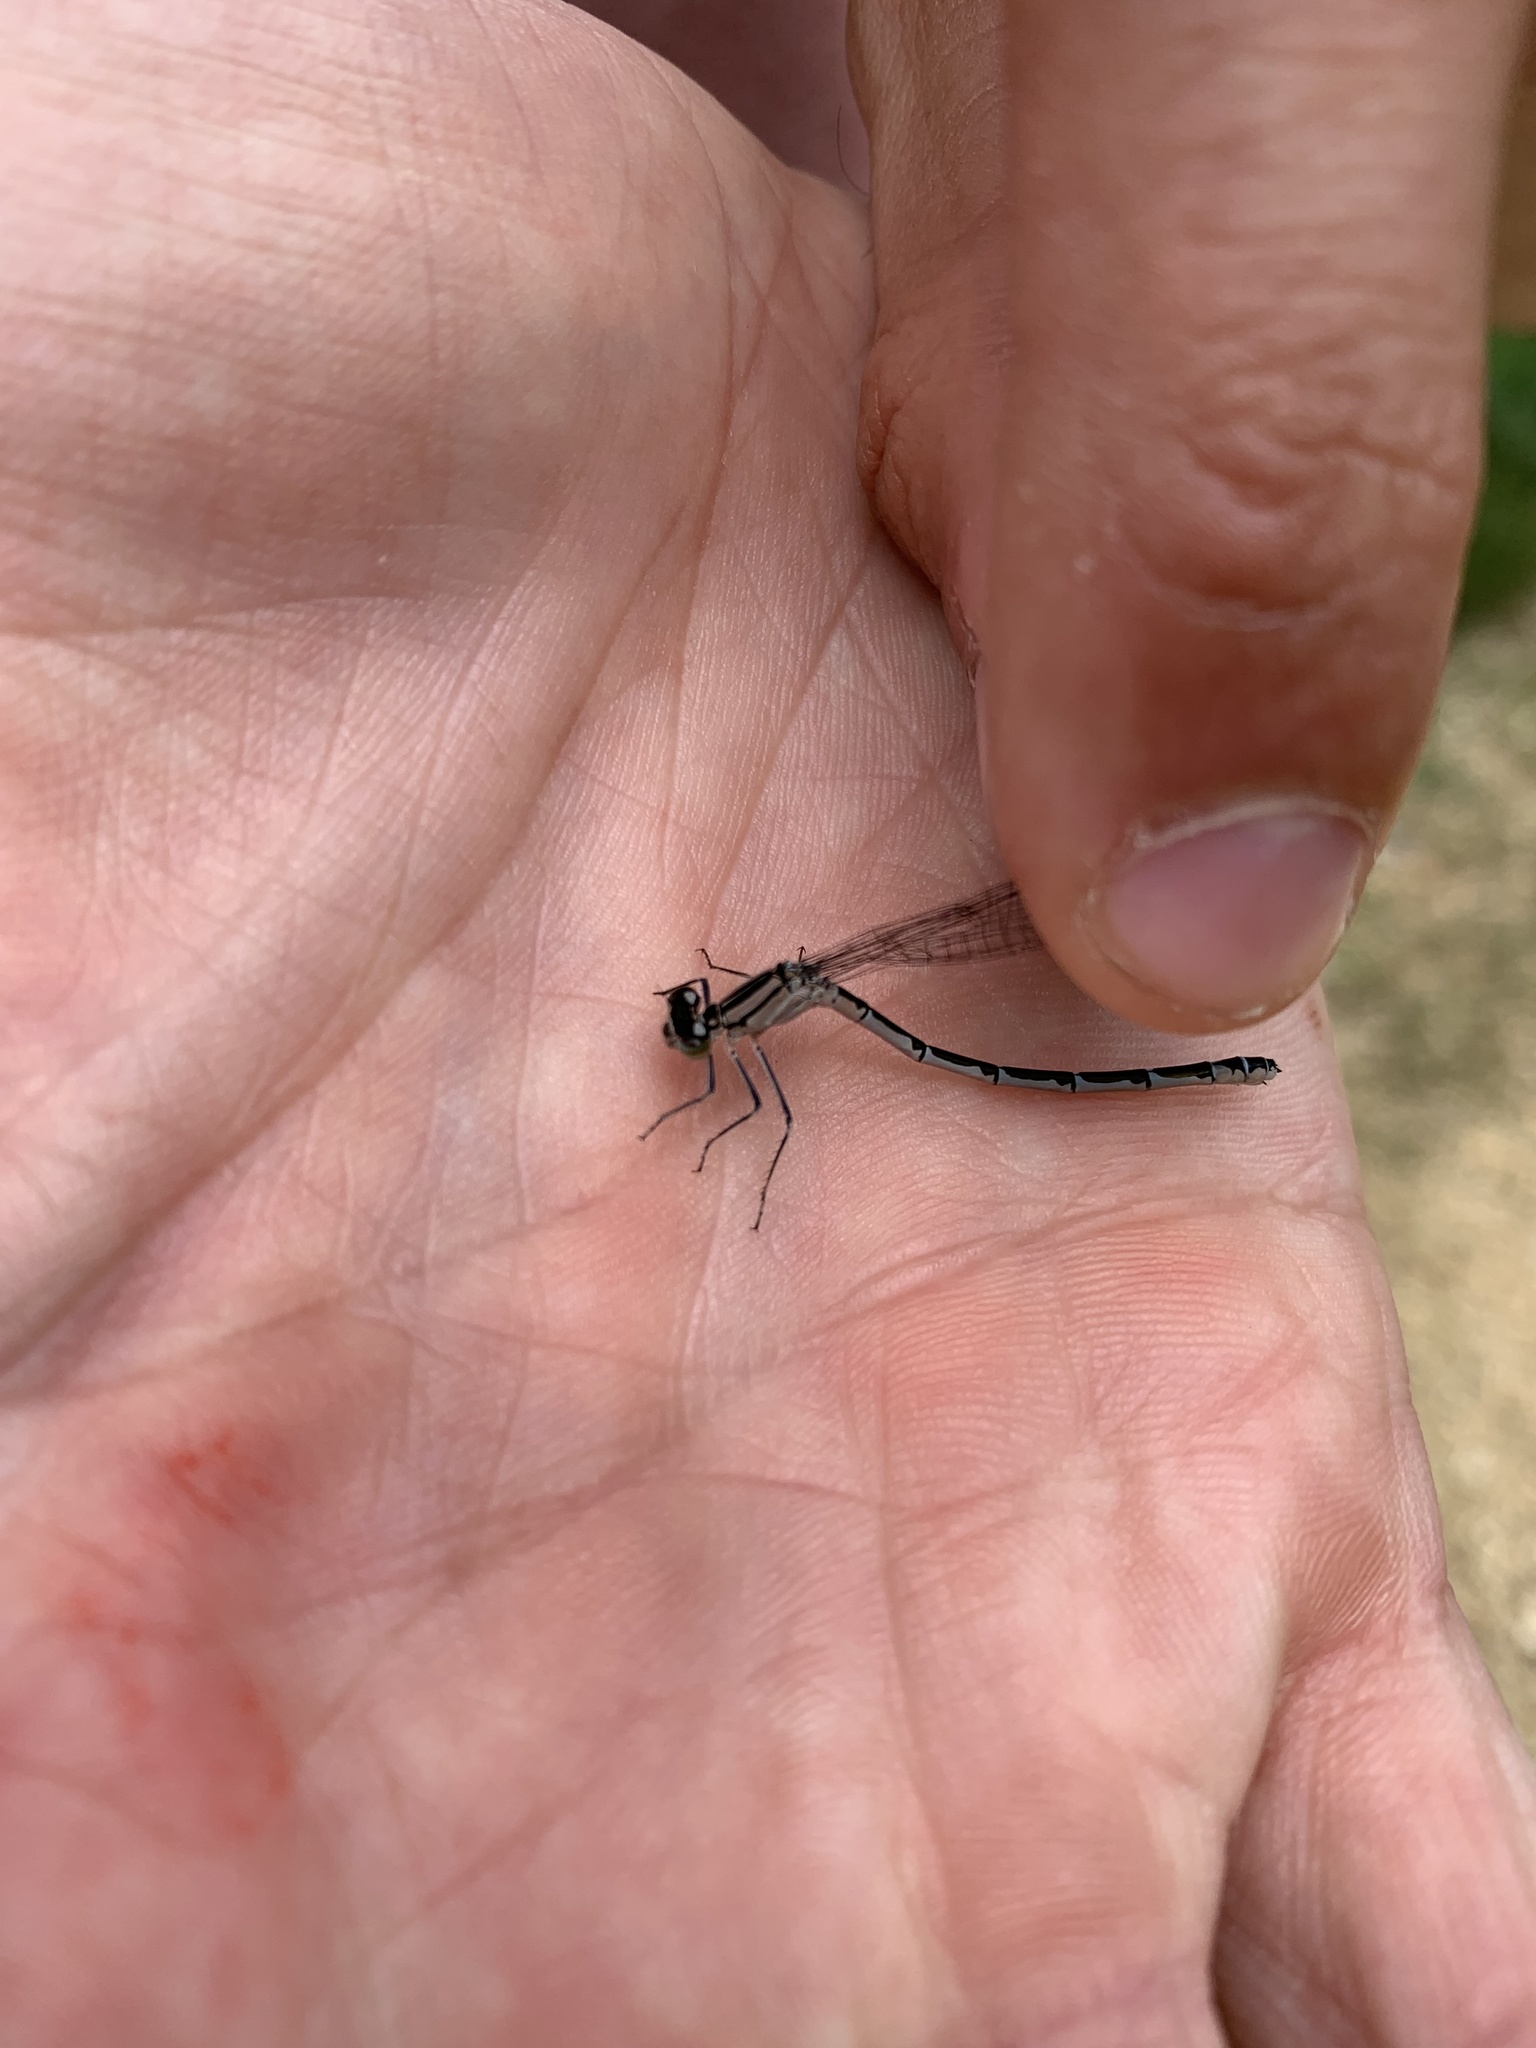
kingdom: Animalia
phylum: Arthropoda
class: Insecta
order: Odonata
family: Coenagrionidae
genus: Enallagma
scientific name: Enallagma cyathigerum
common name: Common blue damselfly
